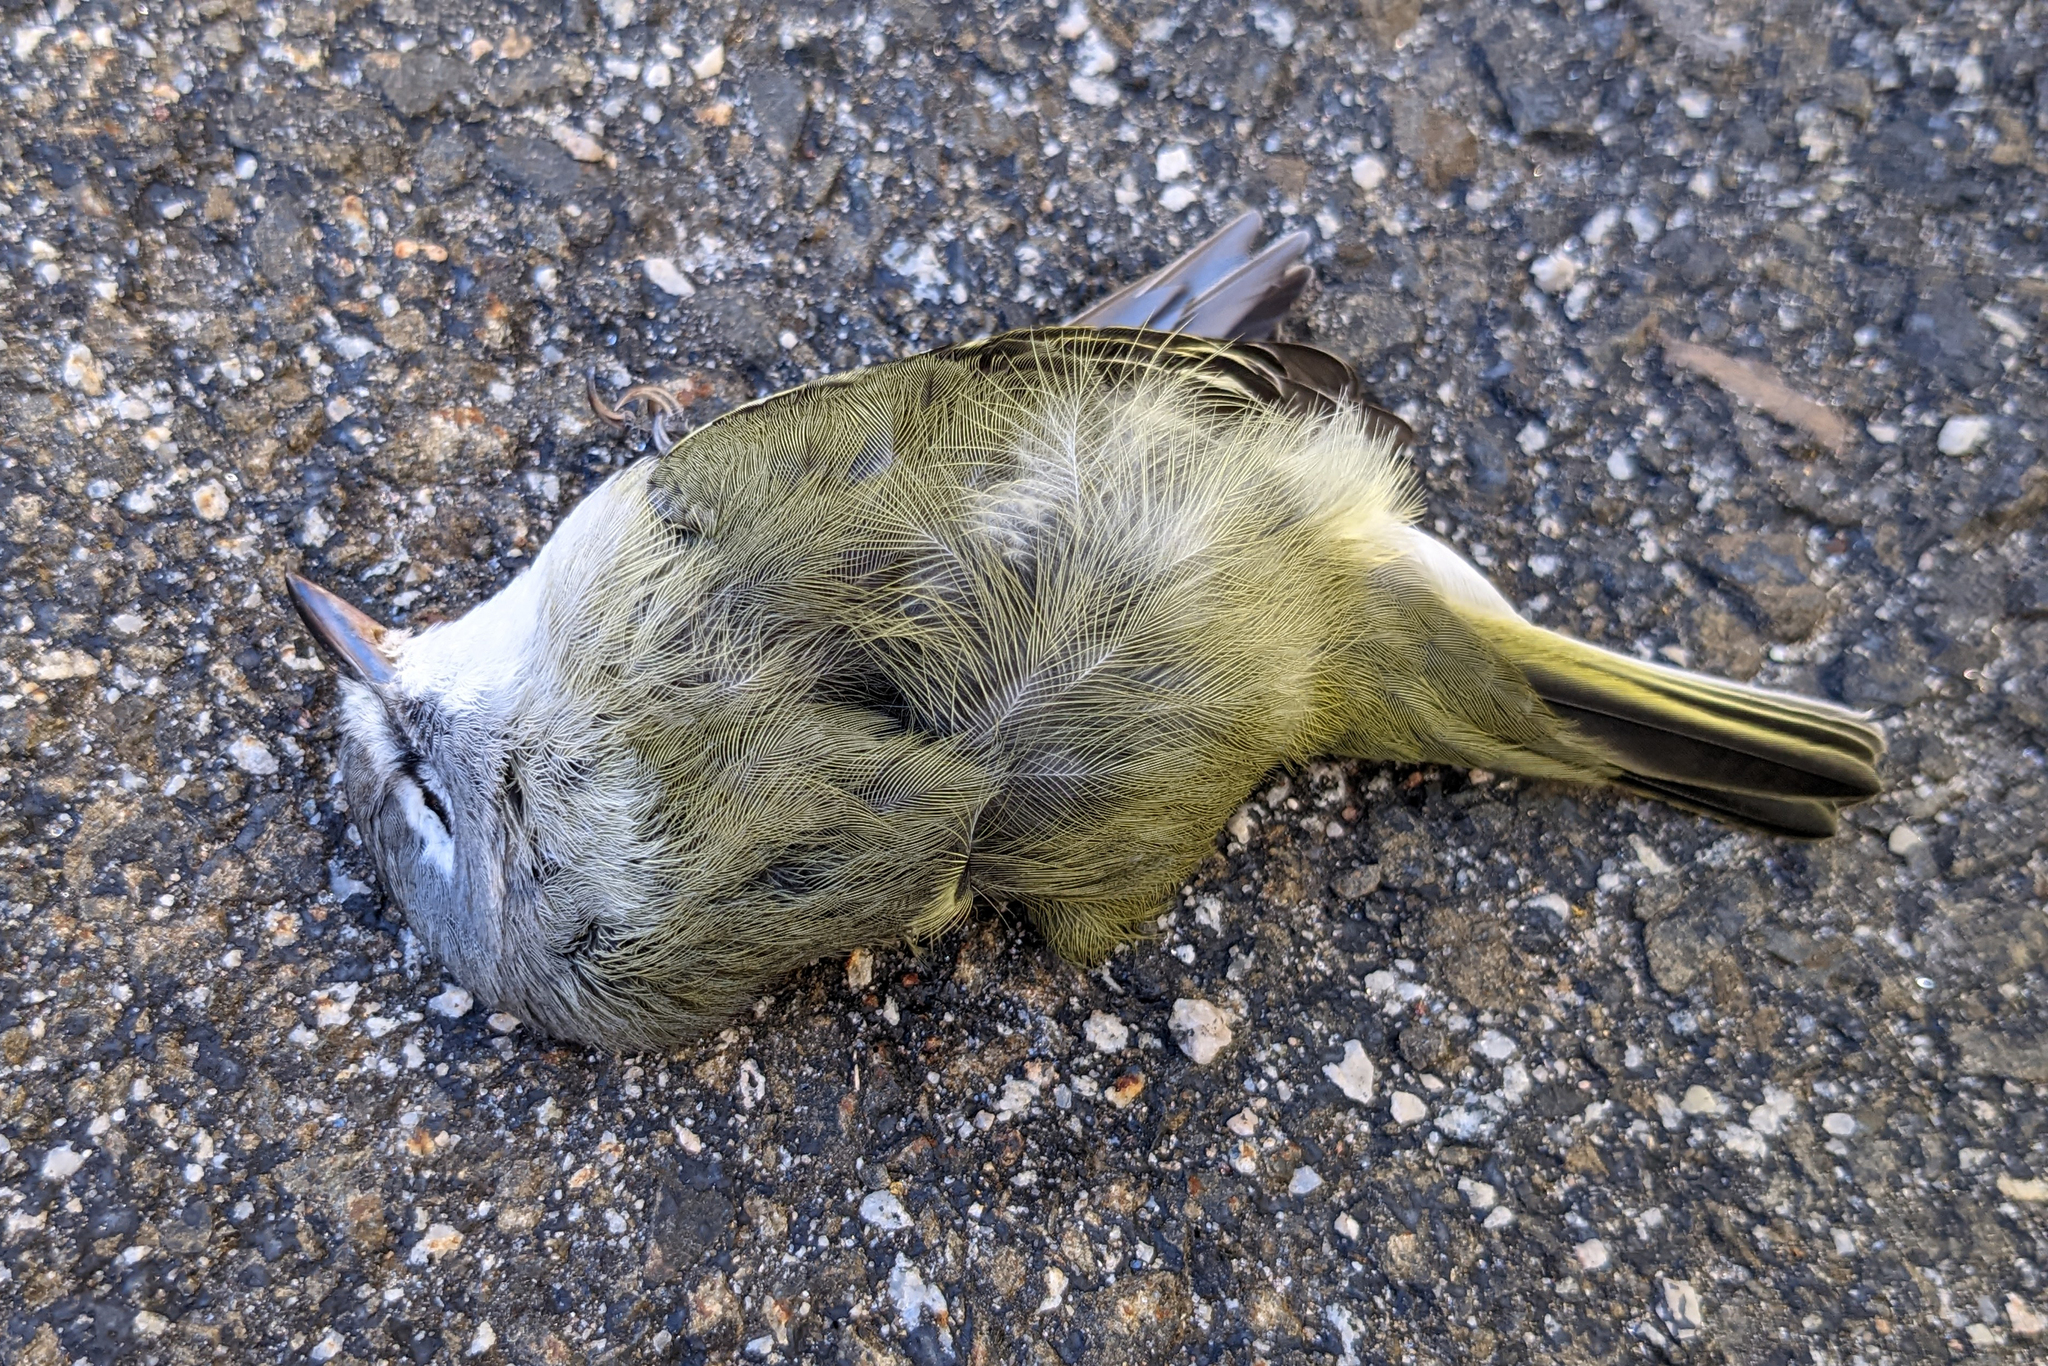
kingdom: Animalia
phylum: Chordata
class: Aves
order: Passeriformes
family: Vireonidae
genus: Vireo
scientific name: Vireo solitarius
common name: Blue-headed vireo
